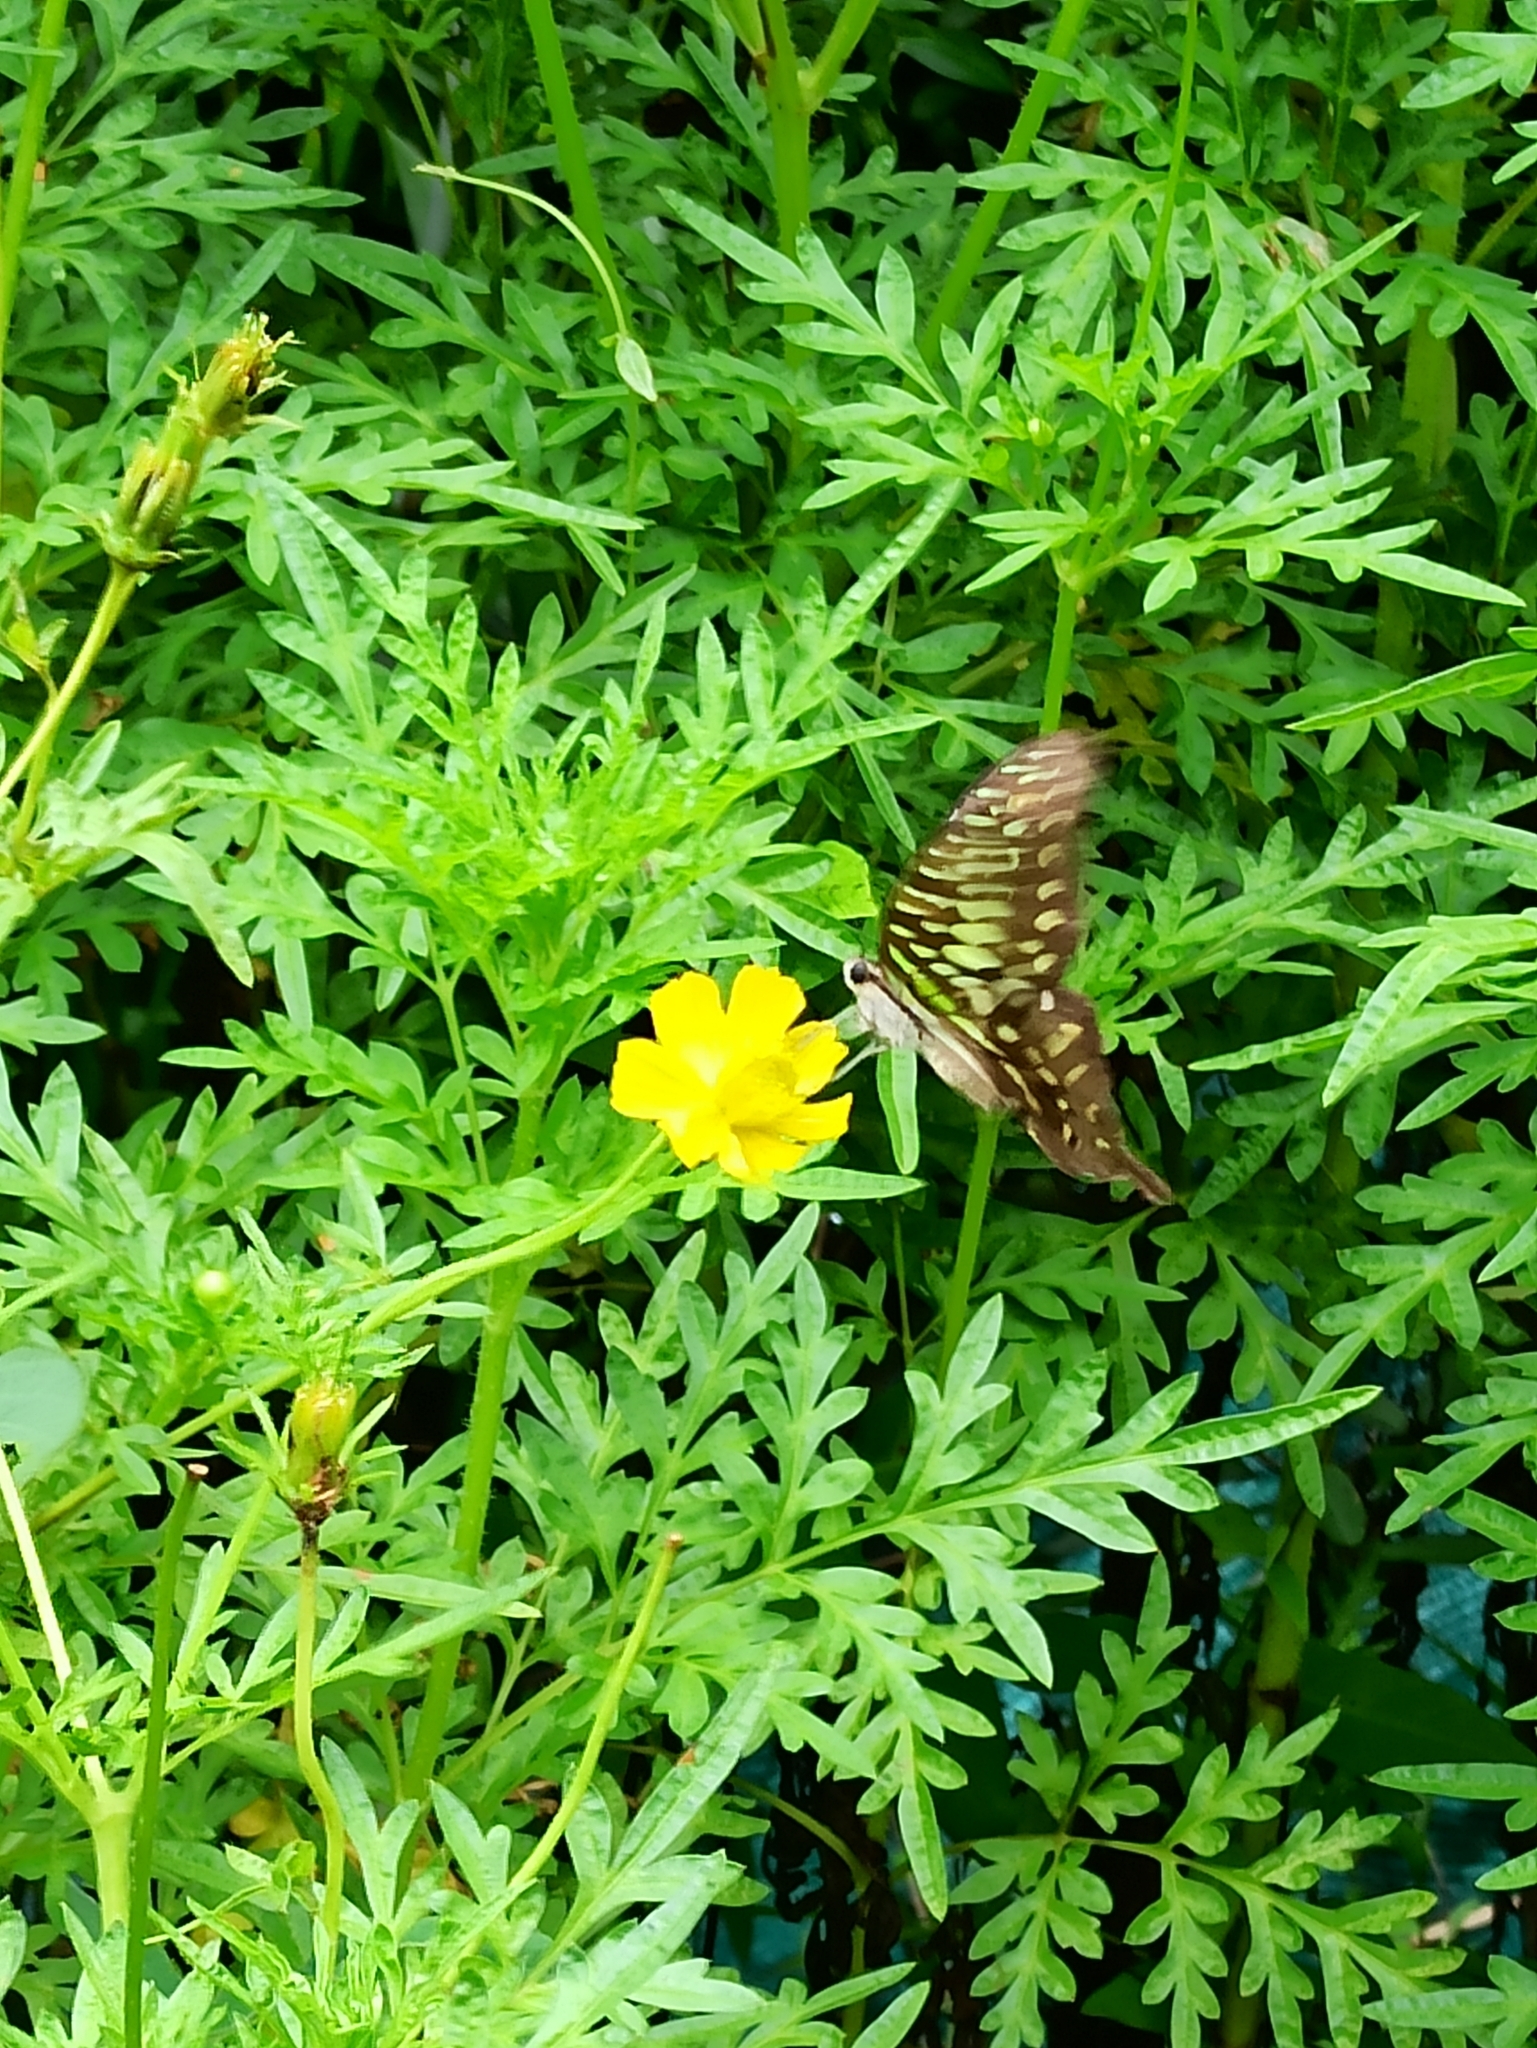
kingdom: Animalia
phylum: Arthropoda
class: Insecta
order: Lepidoptera
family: Papilionidae
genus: Graphium
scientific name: Graphium agamemnon
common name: Tailed jay
